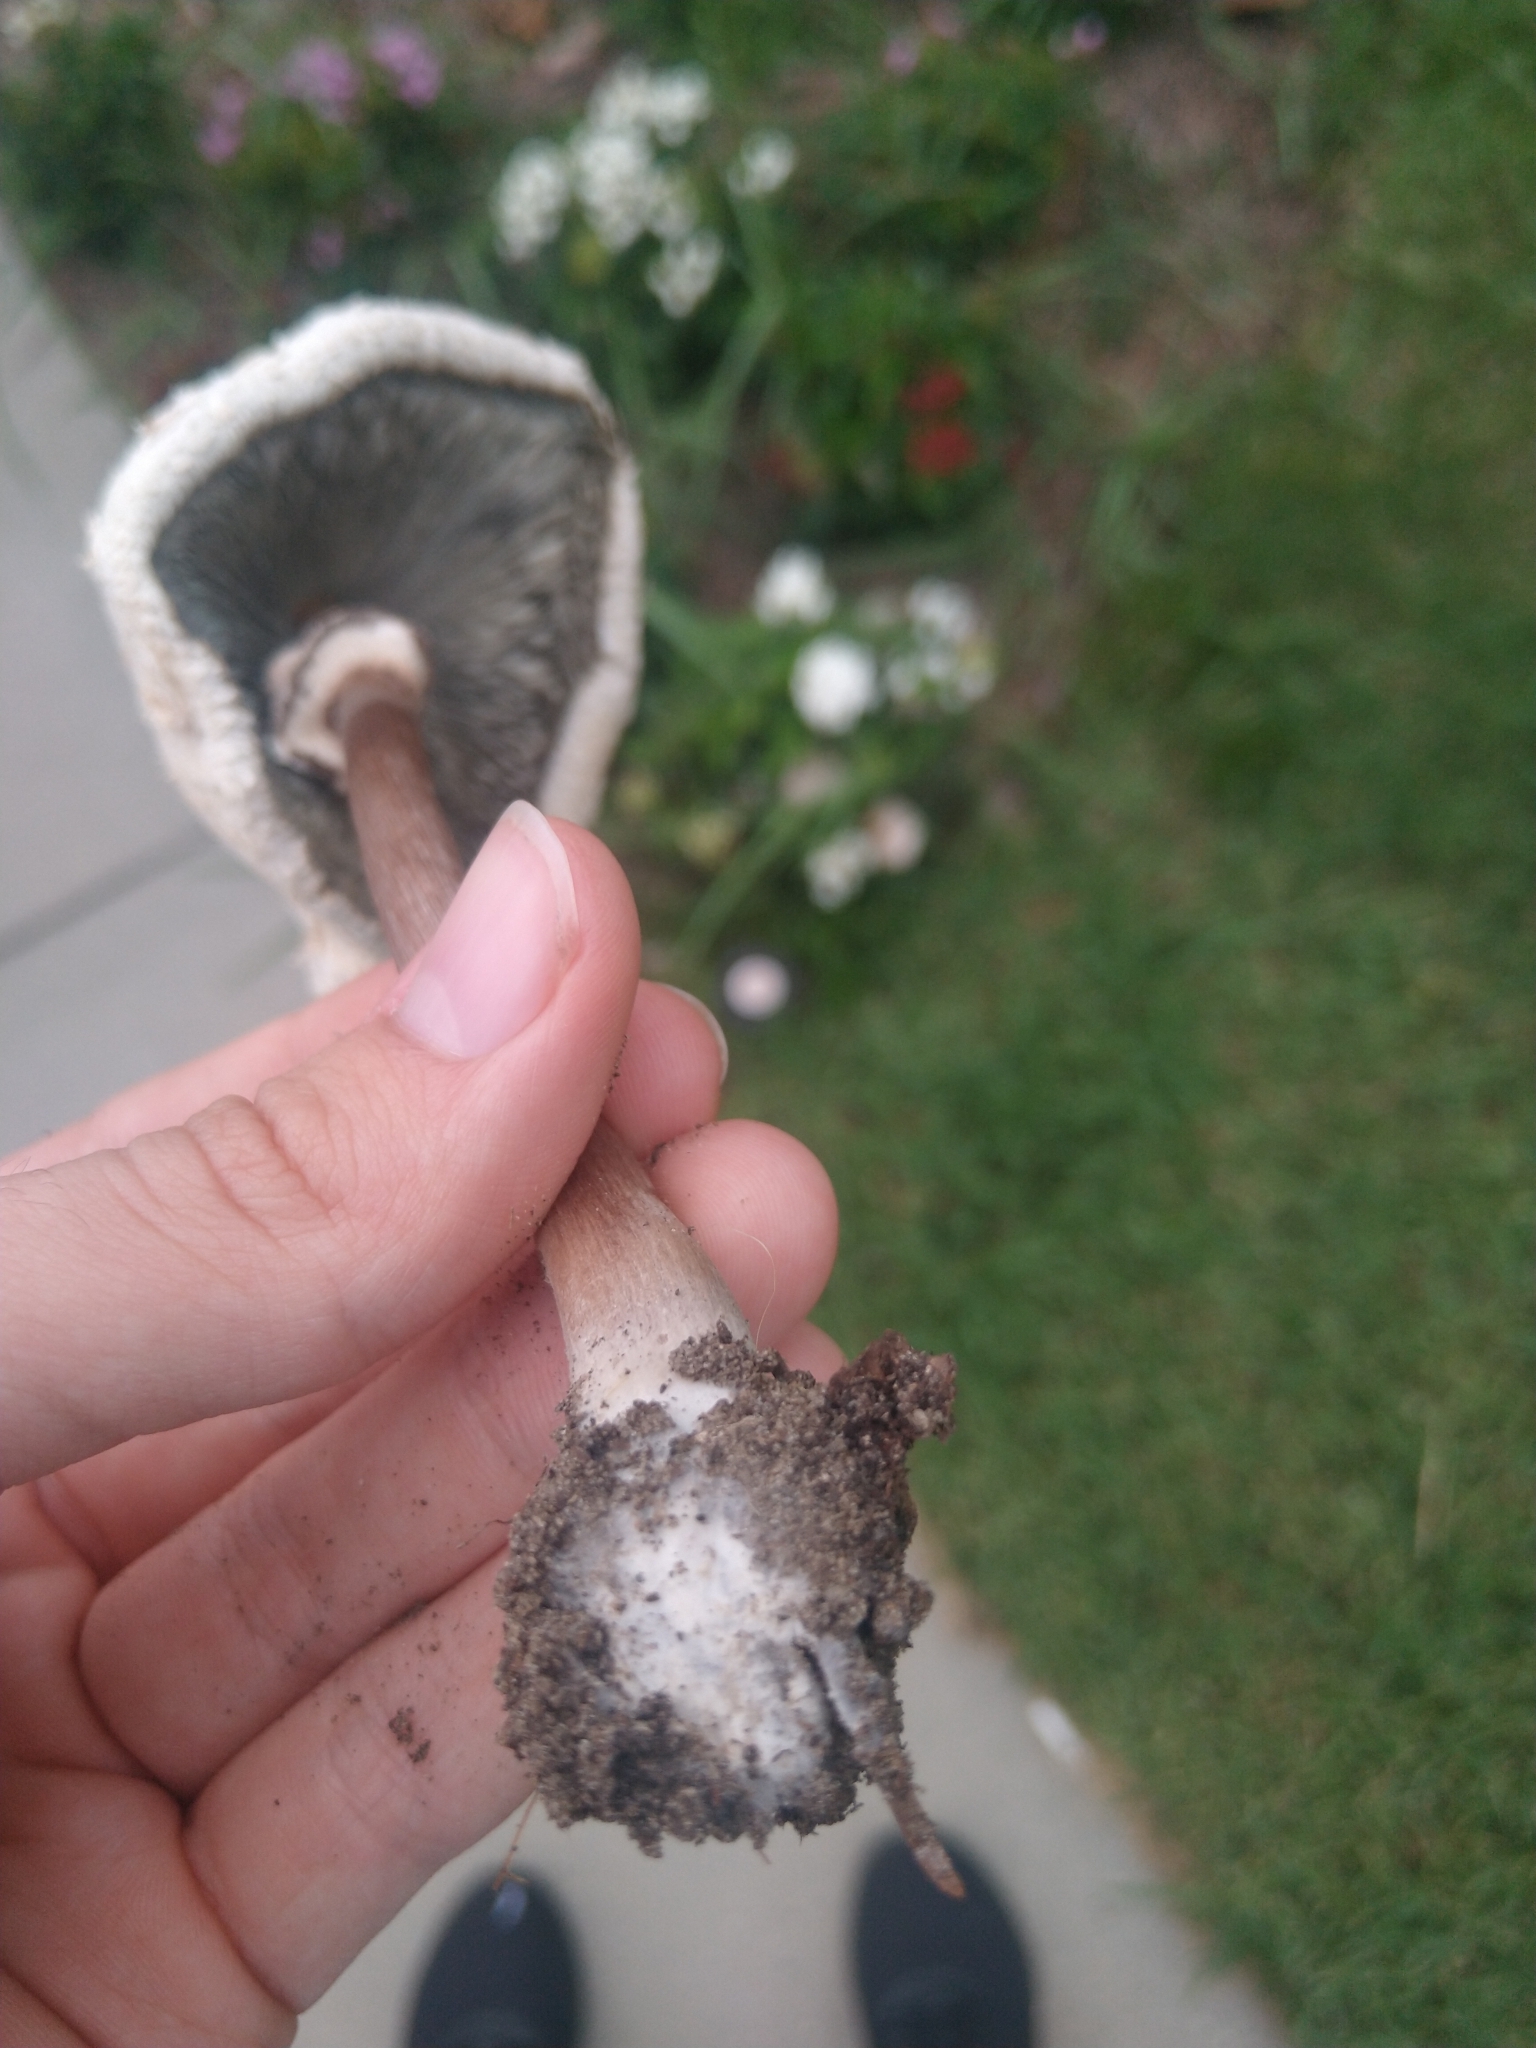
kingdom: Fungi
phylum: Basidiomycota
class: Agaricomycetes
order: Agaricales
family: Agaricaceae
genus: Chlorophyllum
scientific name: Chlorophyllum molybdites
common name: False parasol
